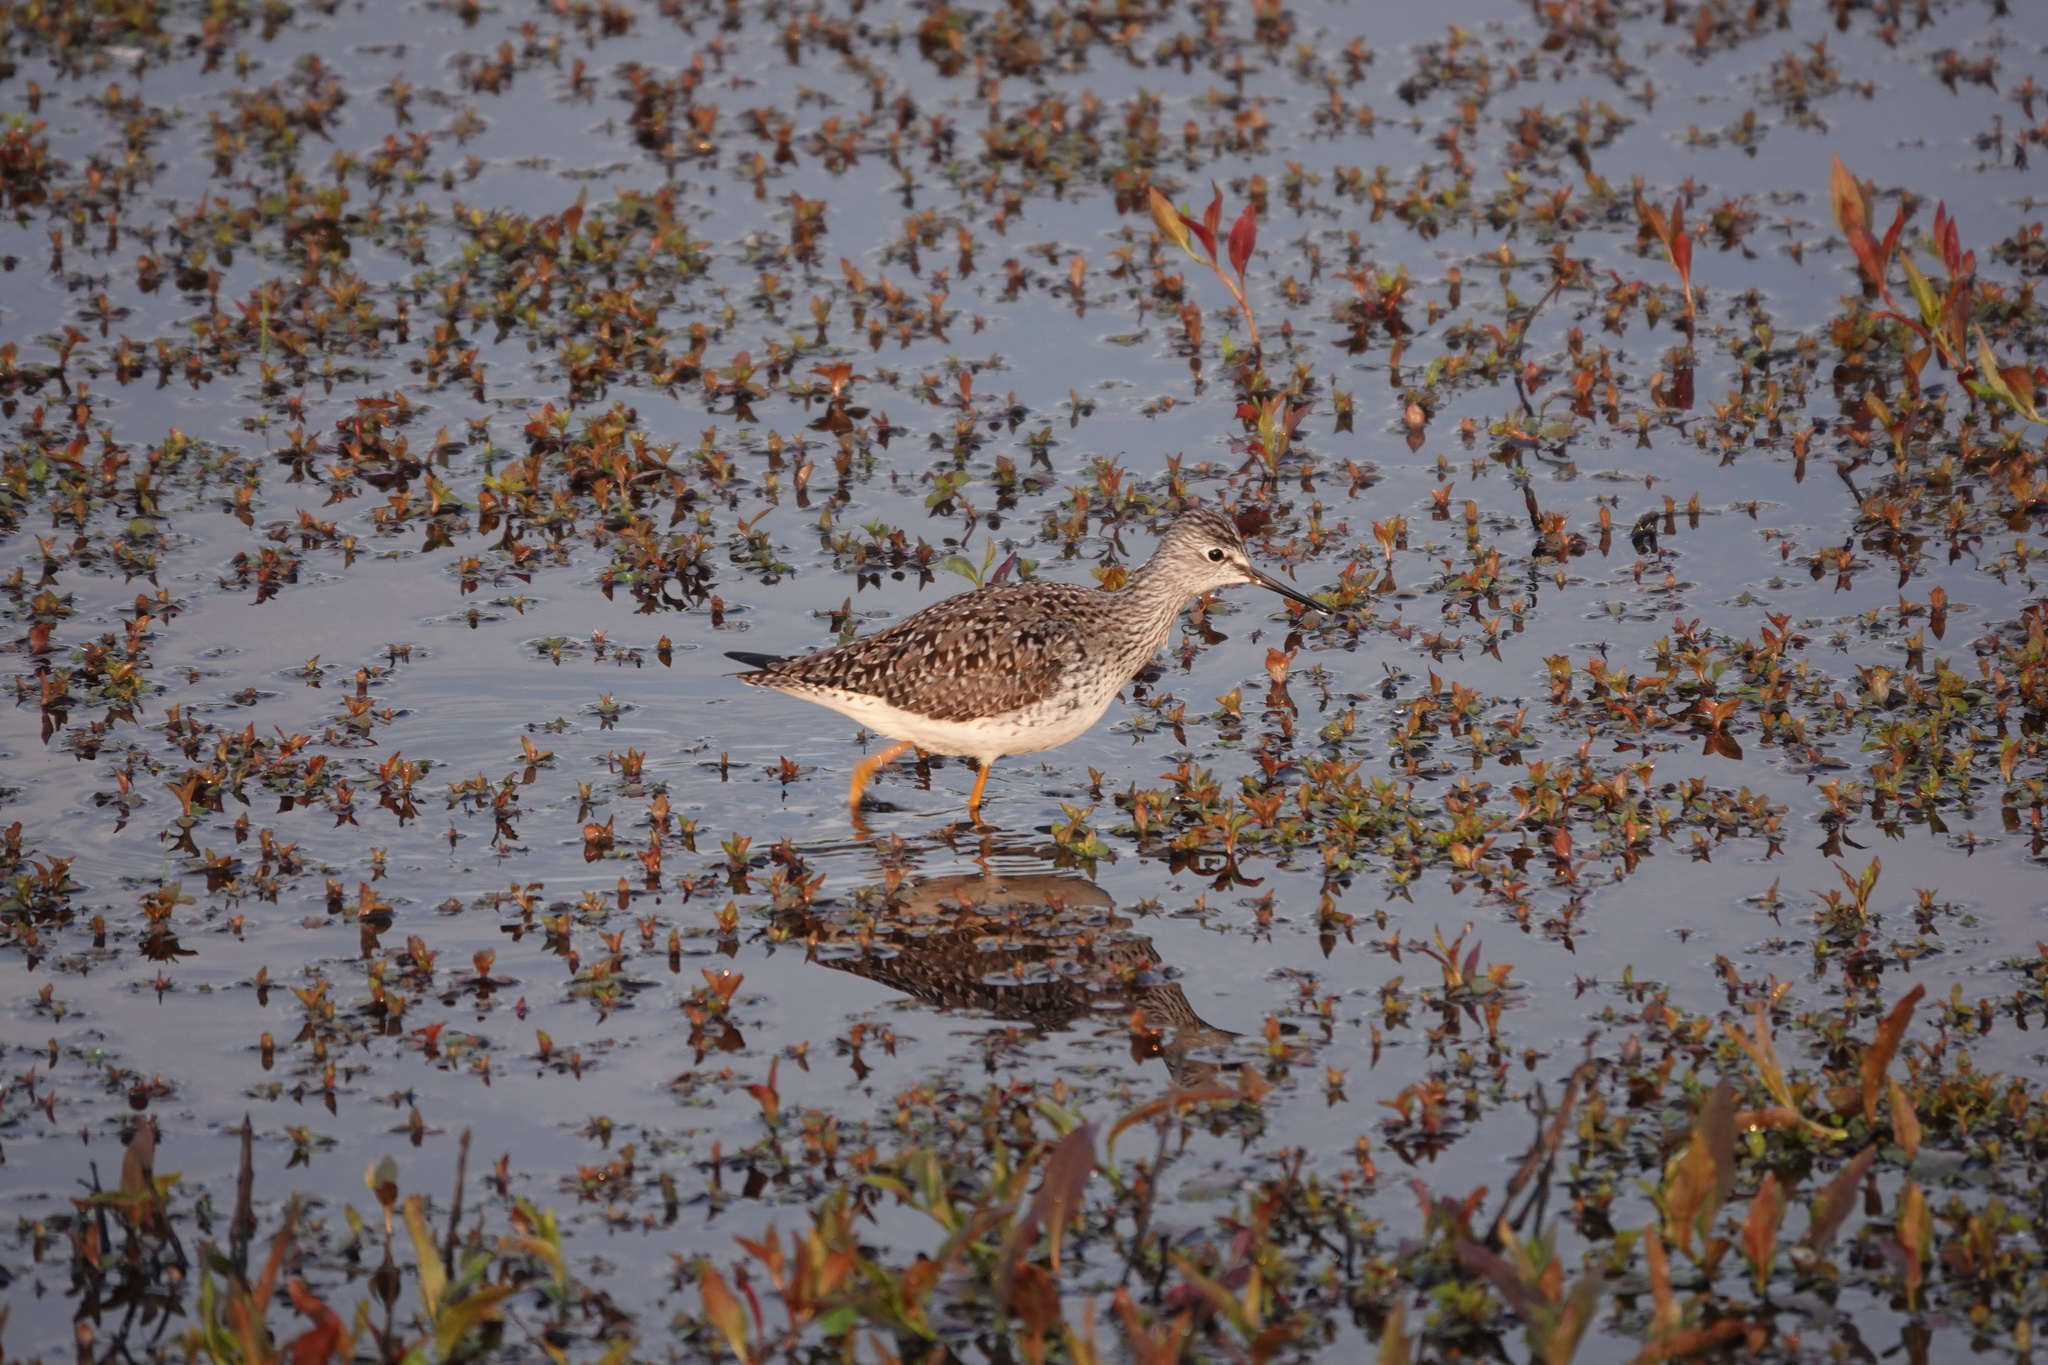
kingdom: Animalia
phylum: Chordata
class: Aves
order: Charadriiformes
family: Scolopacidae
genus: Tringa
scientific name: Tringa flavipes
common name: Lesser yellowlegs
